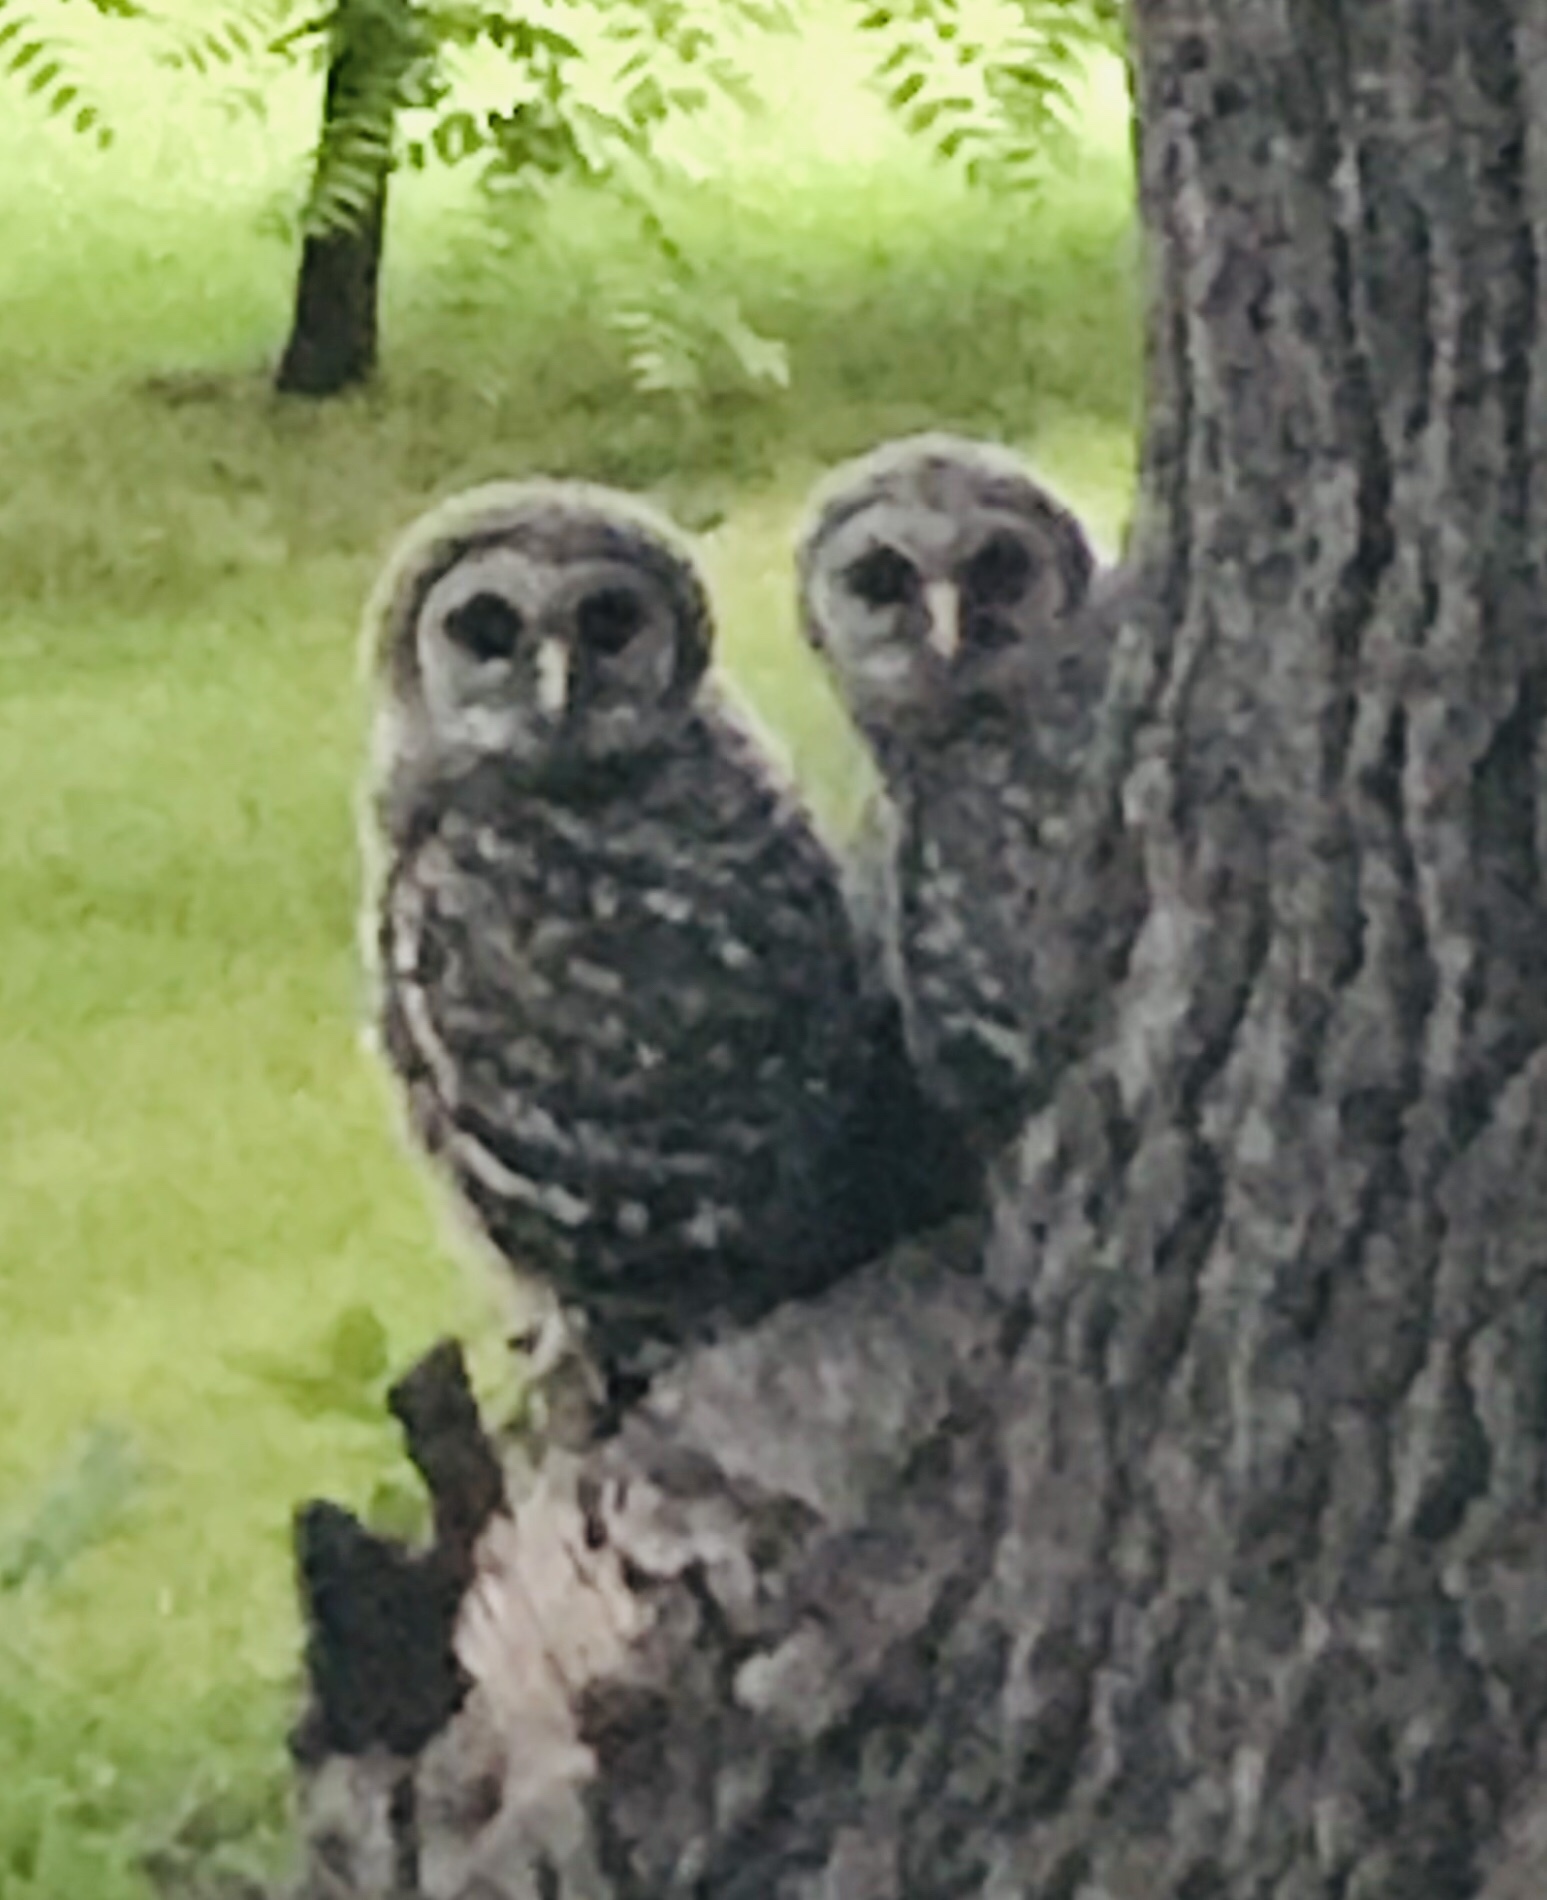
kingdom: Animalia
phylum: Chordata
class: Aves
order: Strigiformes
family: Strigidae
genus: Strix
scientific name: Strix varia
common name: Barred owl
